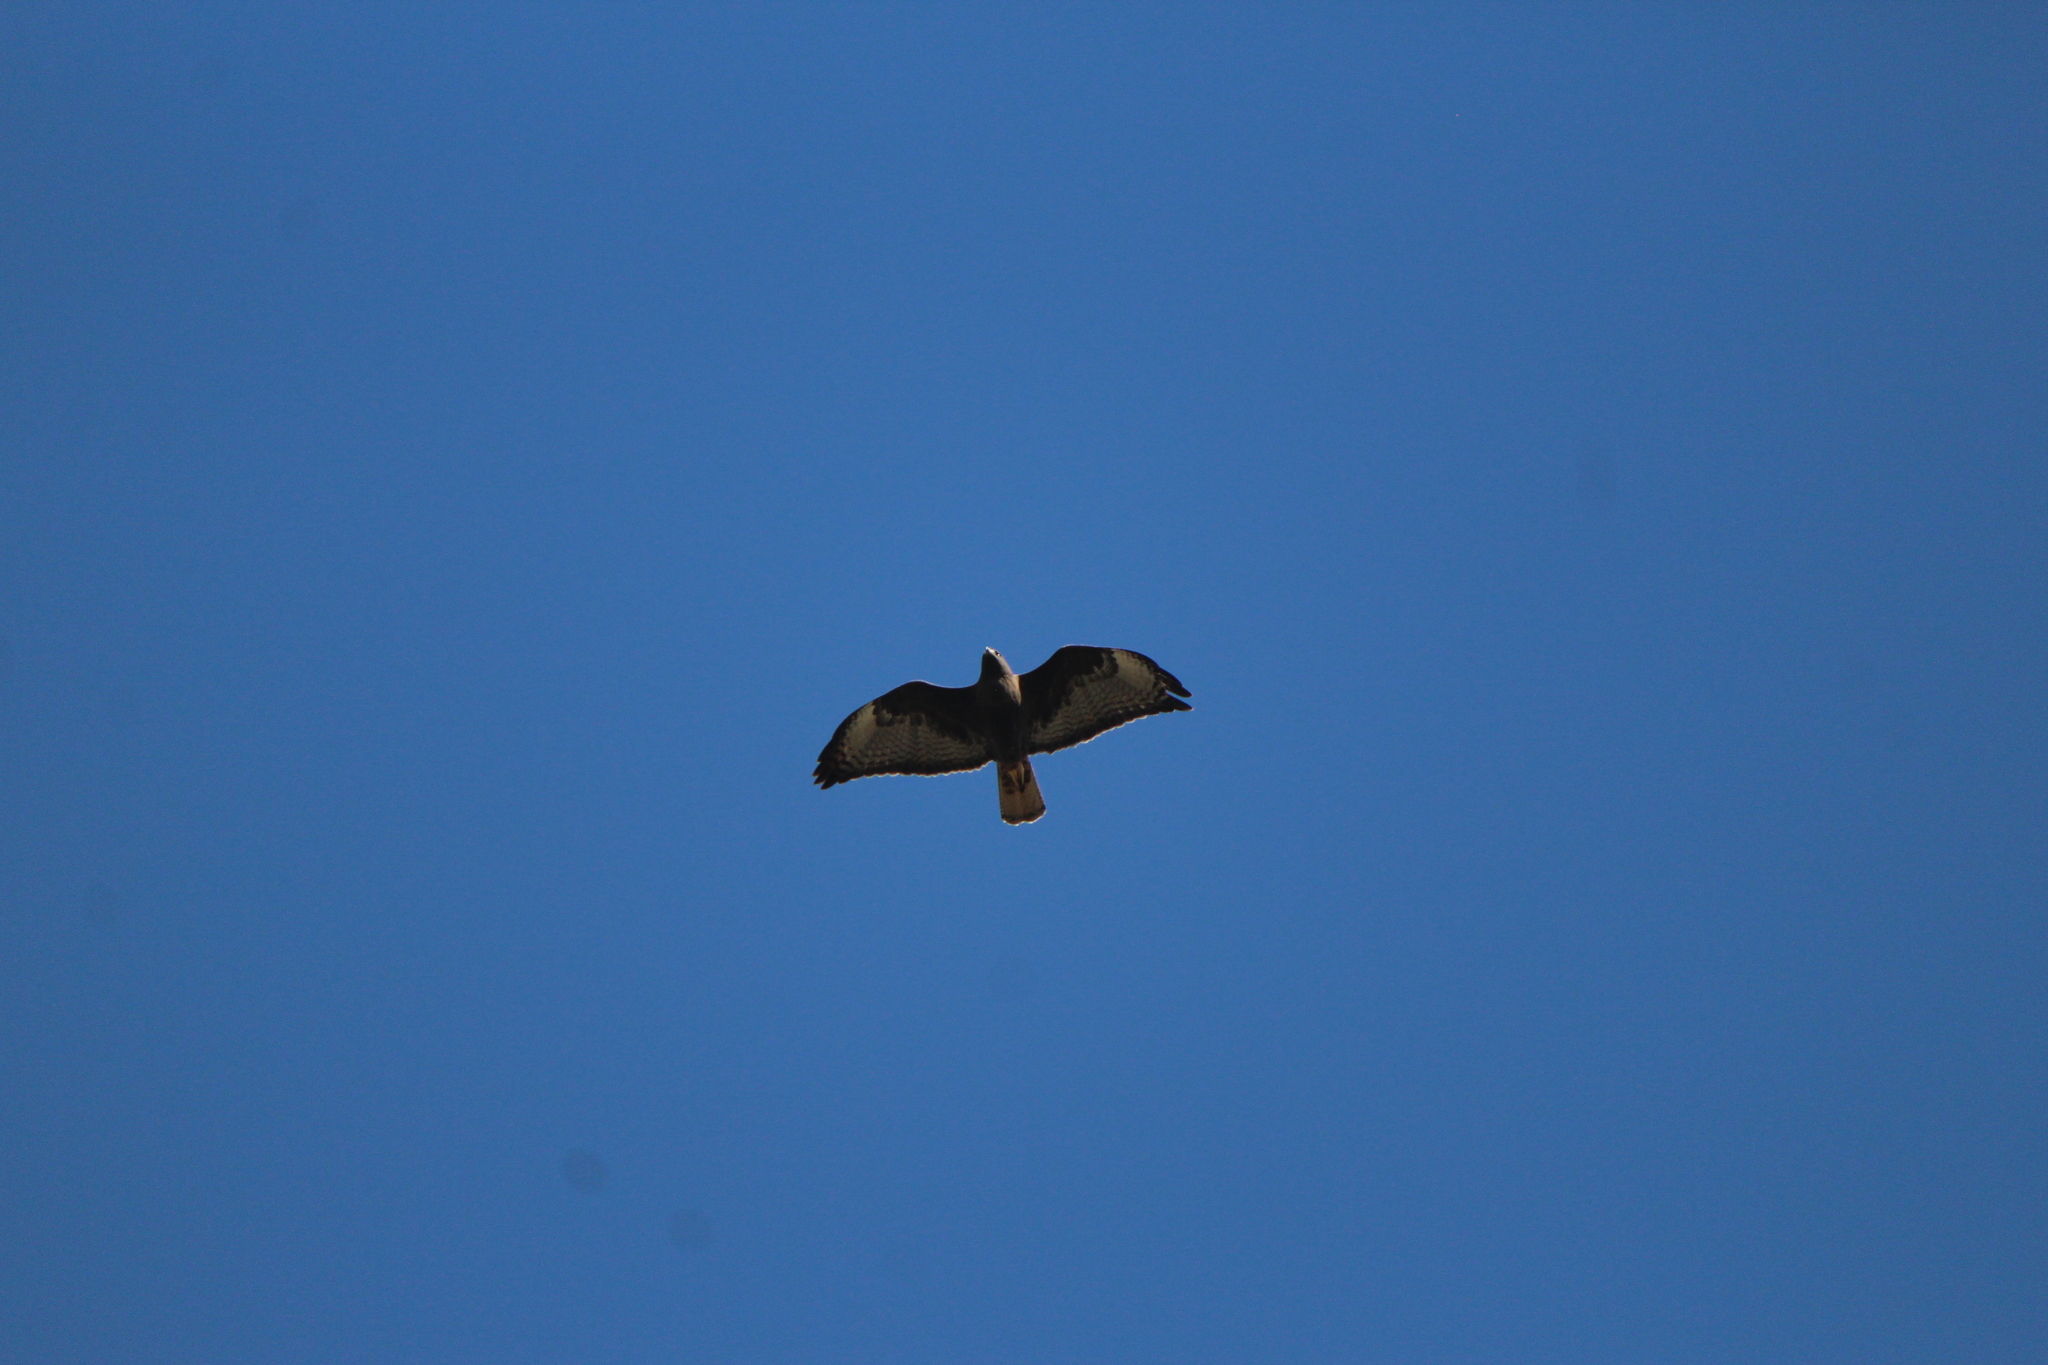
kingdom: Animalia
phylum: Chordata
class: Aves
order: Accipitriformes
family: Accipitridae
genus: Buteo
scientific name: Buteo jamaicensis
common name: Red-tailed hawk
